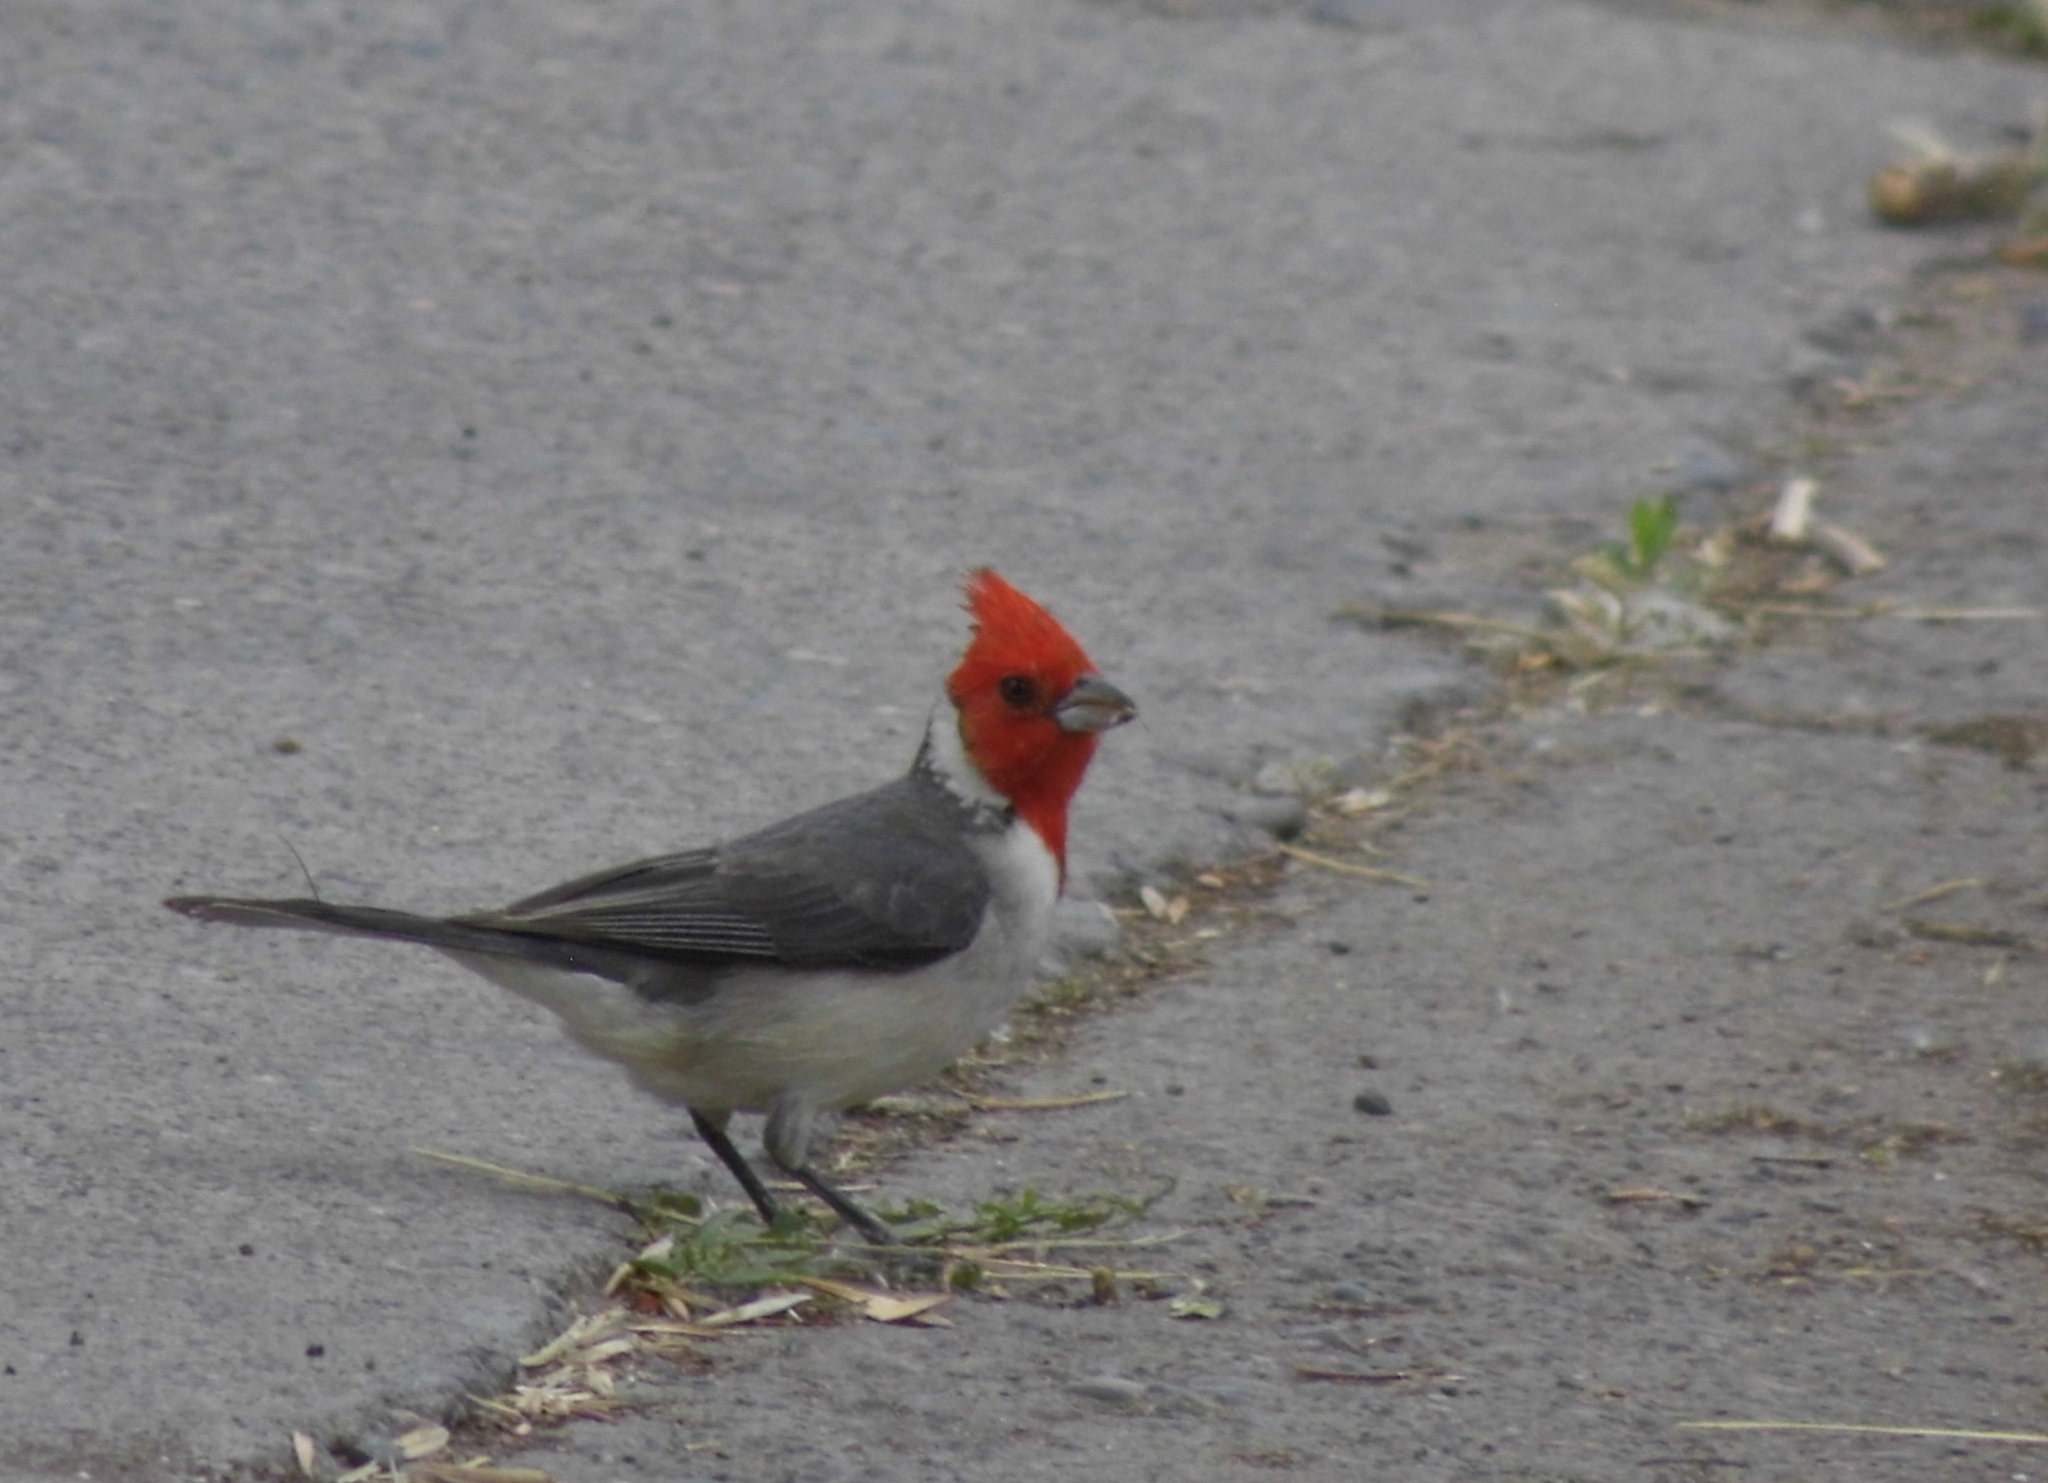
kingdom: Animalia
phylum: Chordata
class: Aves
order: Passeriformes
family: Thraupidae
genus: Paroaria
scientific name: Paroaria coronata
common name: Red-crested cardinal
